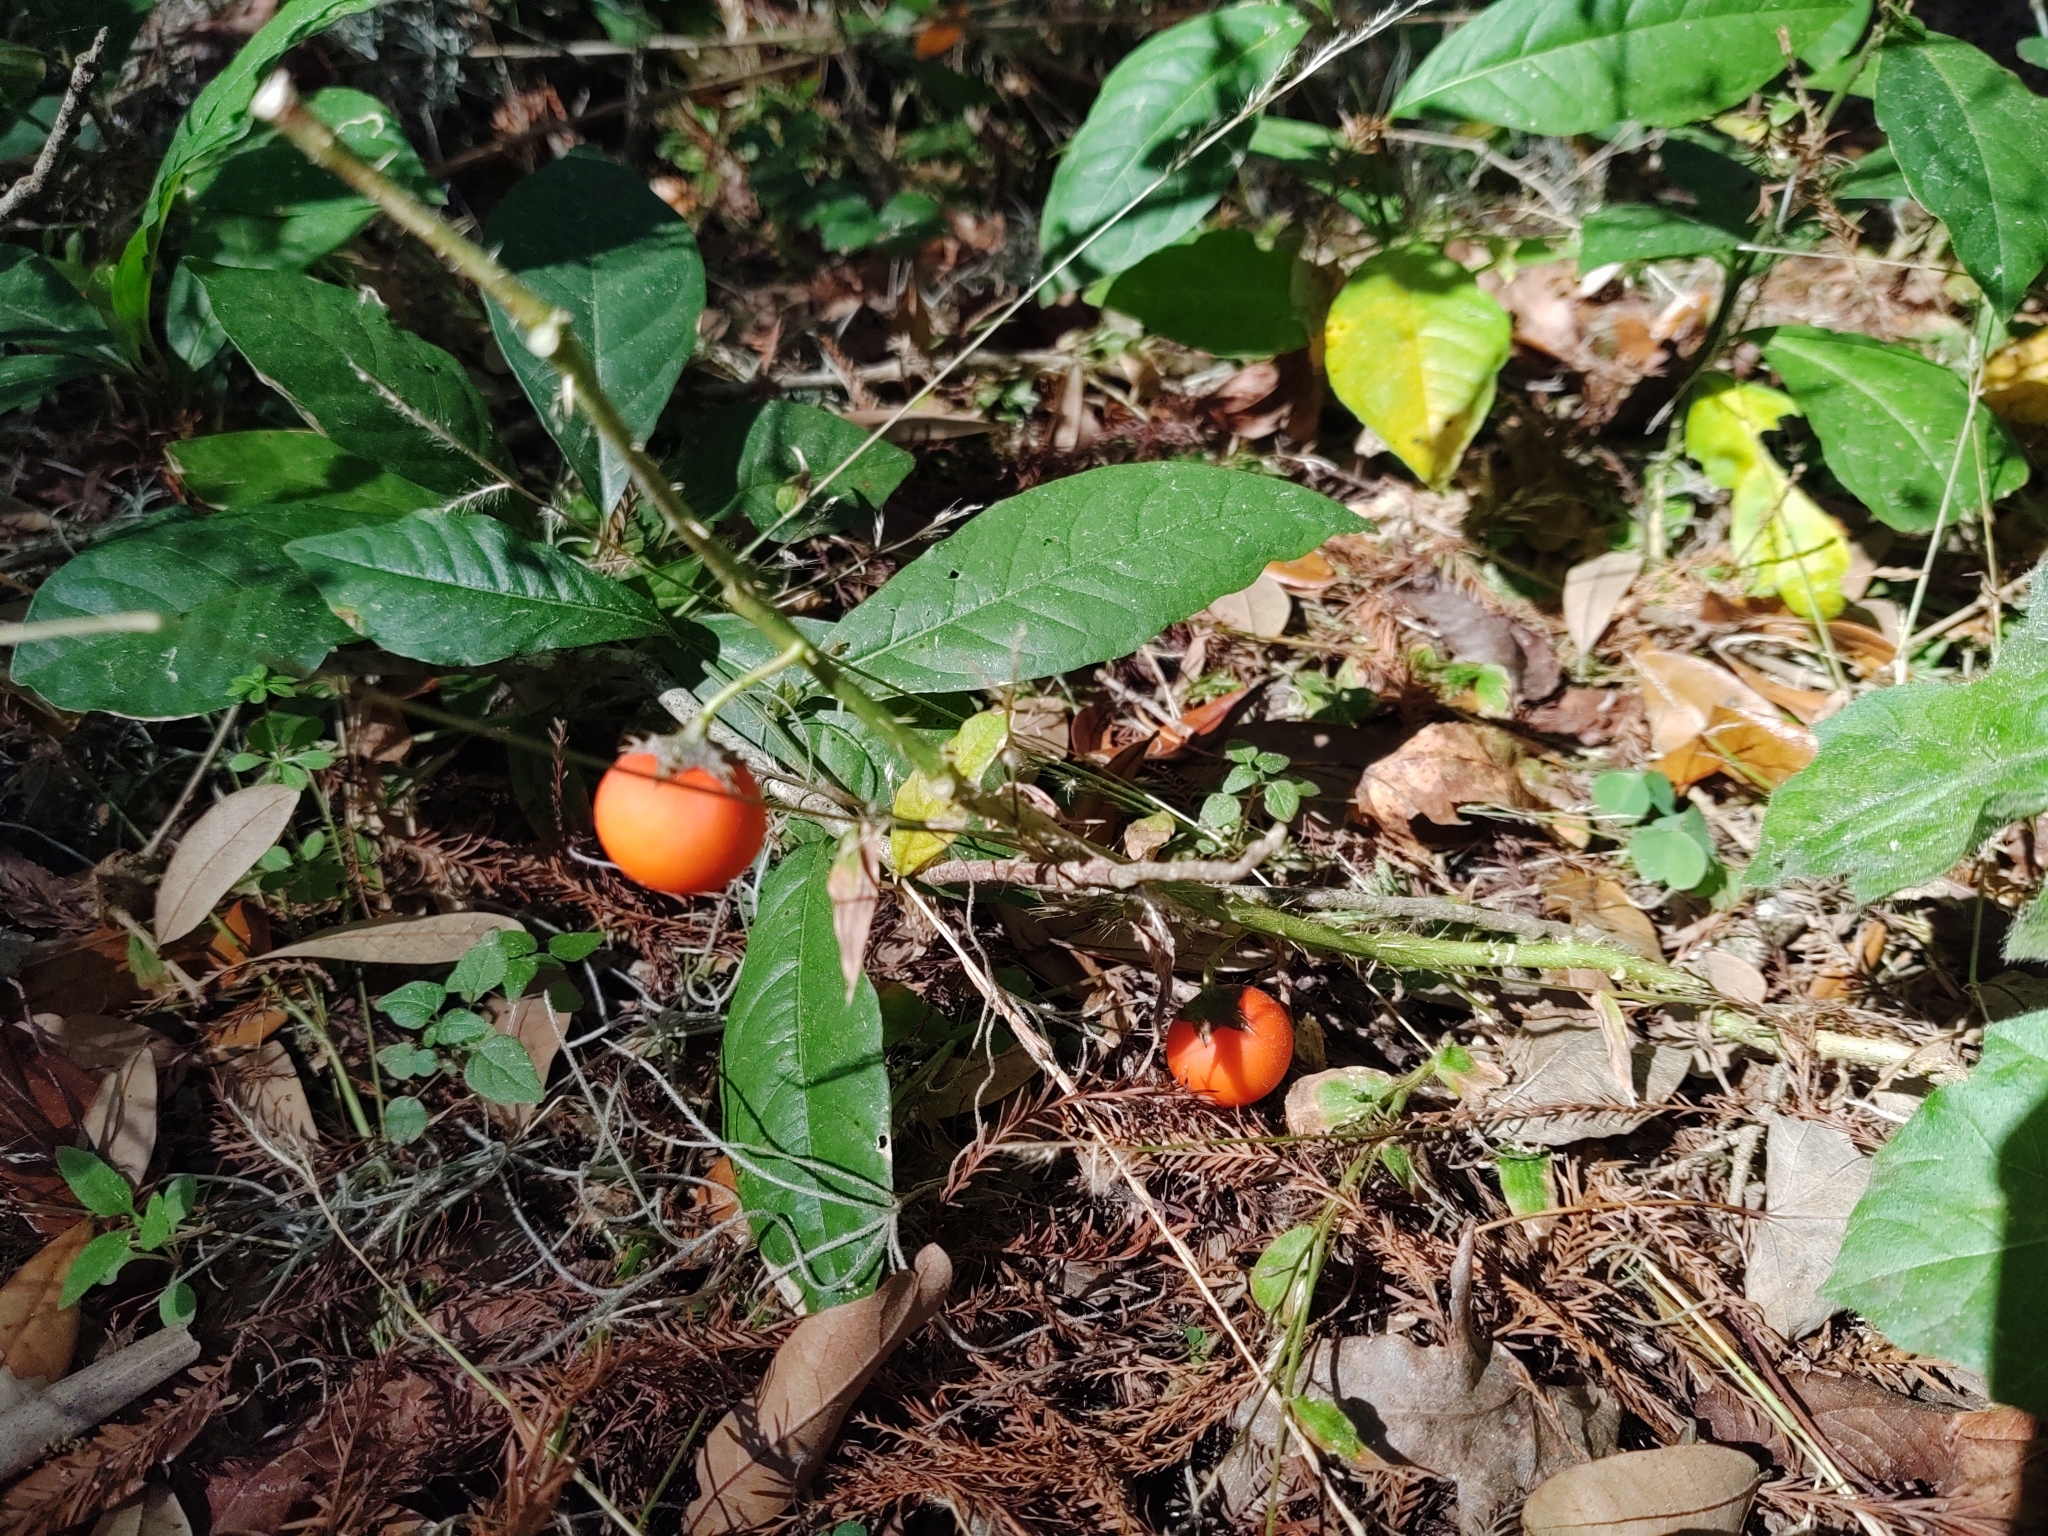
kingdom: Plantae
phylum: Tracheophyta
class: Magnoliopsida
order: Solanales
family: Solanaceae
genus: Solanum
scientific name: Solanum capsicoides
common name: Cockroach berry
